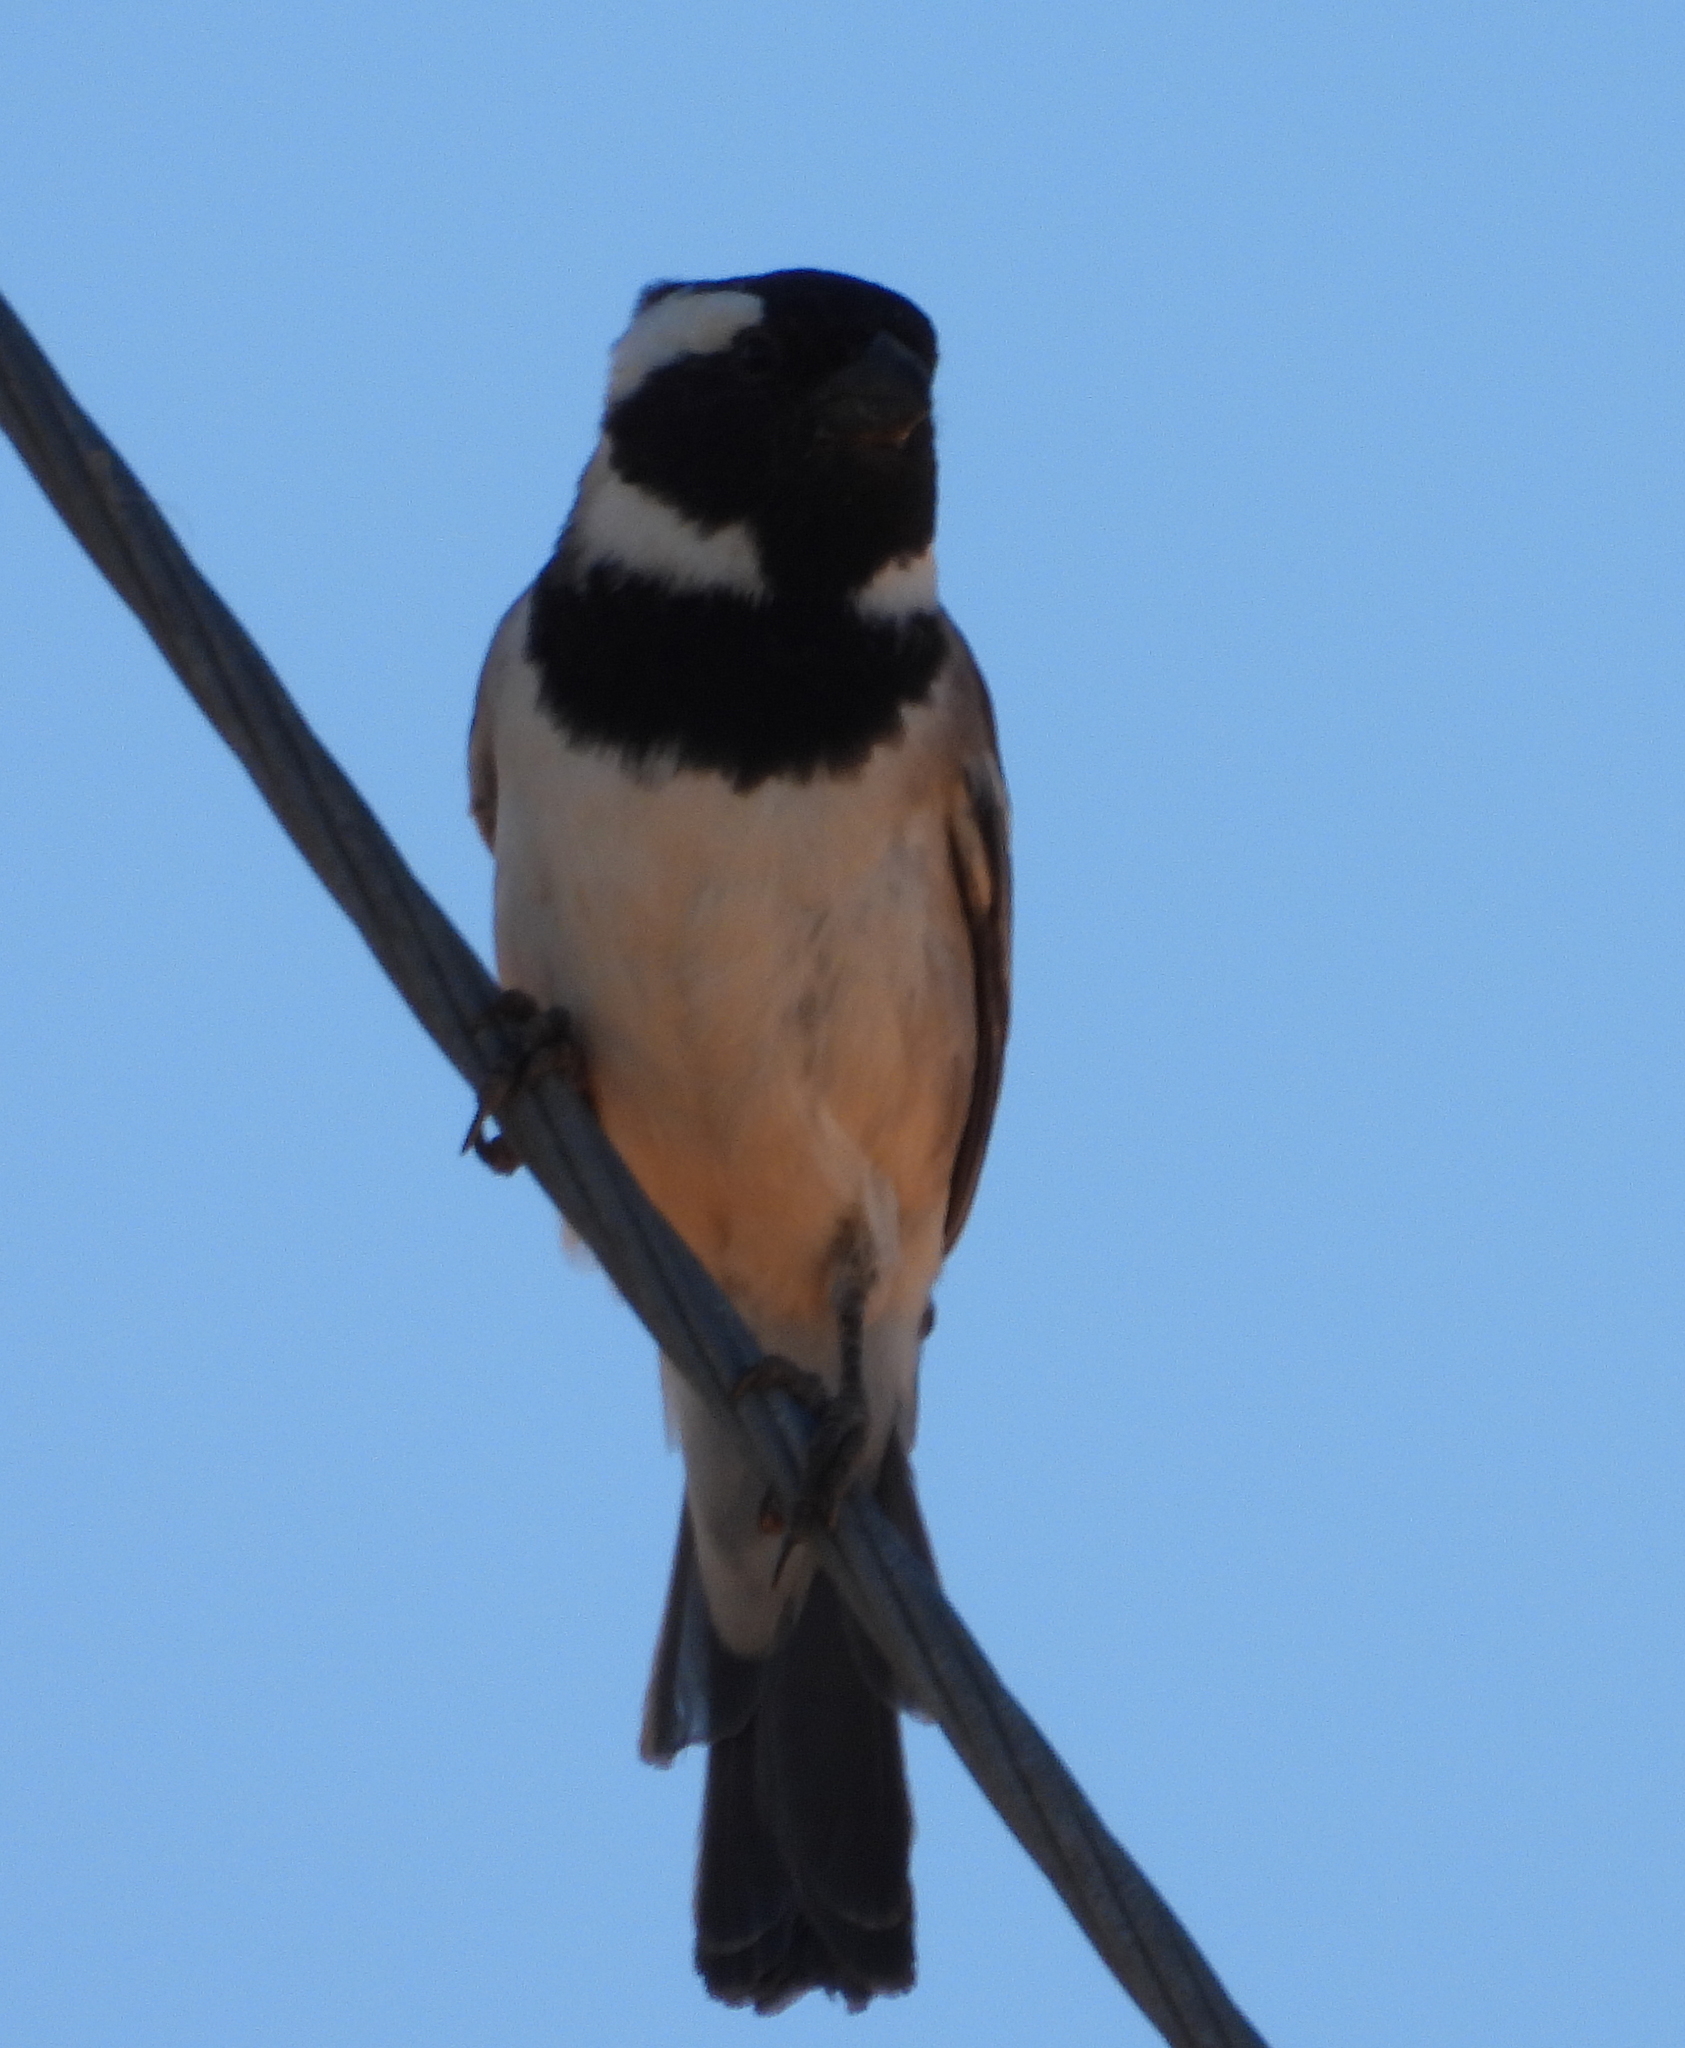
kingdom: Animalia
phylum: Chordata
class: Aves
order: Passeriformes
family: Passeridae
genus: Passer
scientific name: Passer melanurus
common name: Cape sparrow
